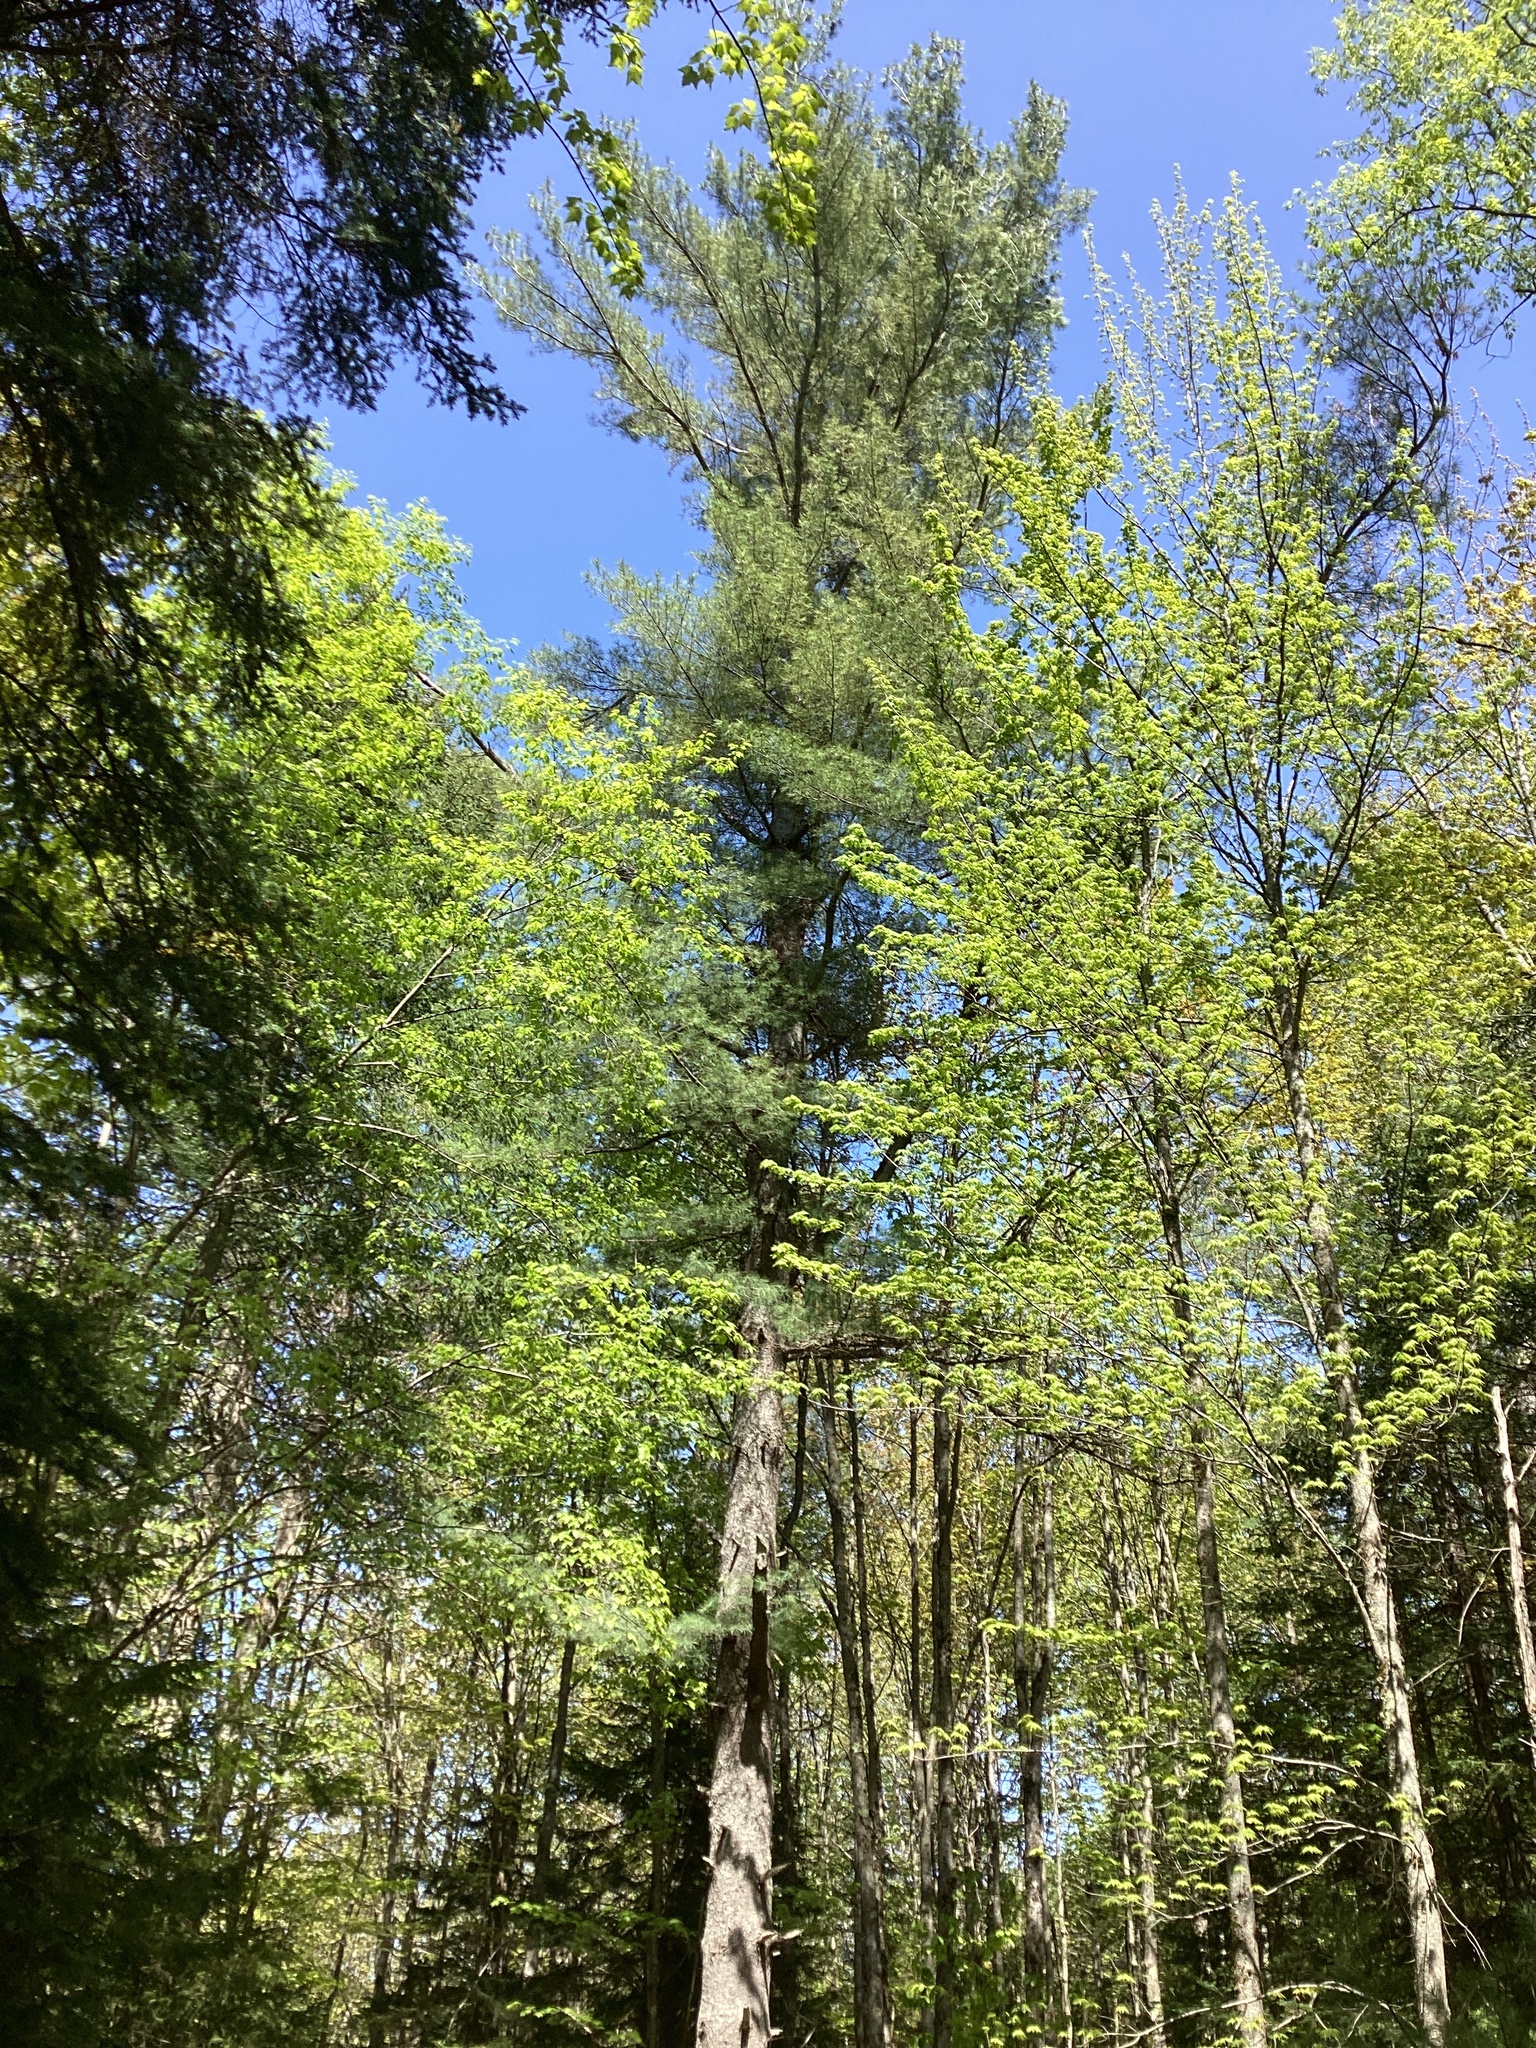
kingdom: Plantae
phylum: Tracheophyta
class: Pinopsida
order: Pinales
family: Pinaceae
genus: Pinus
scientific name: Pinus strobus
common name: Weymouth pine
